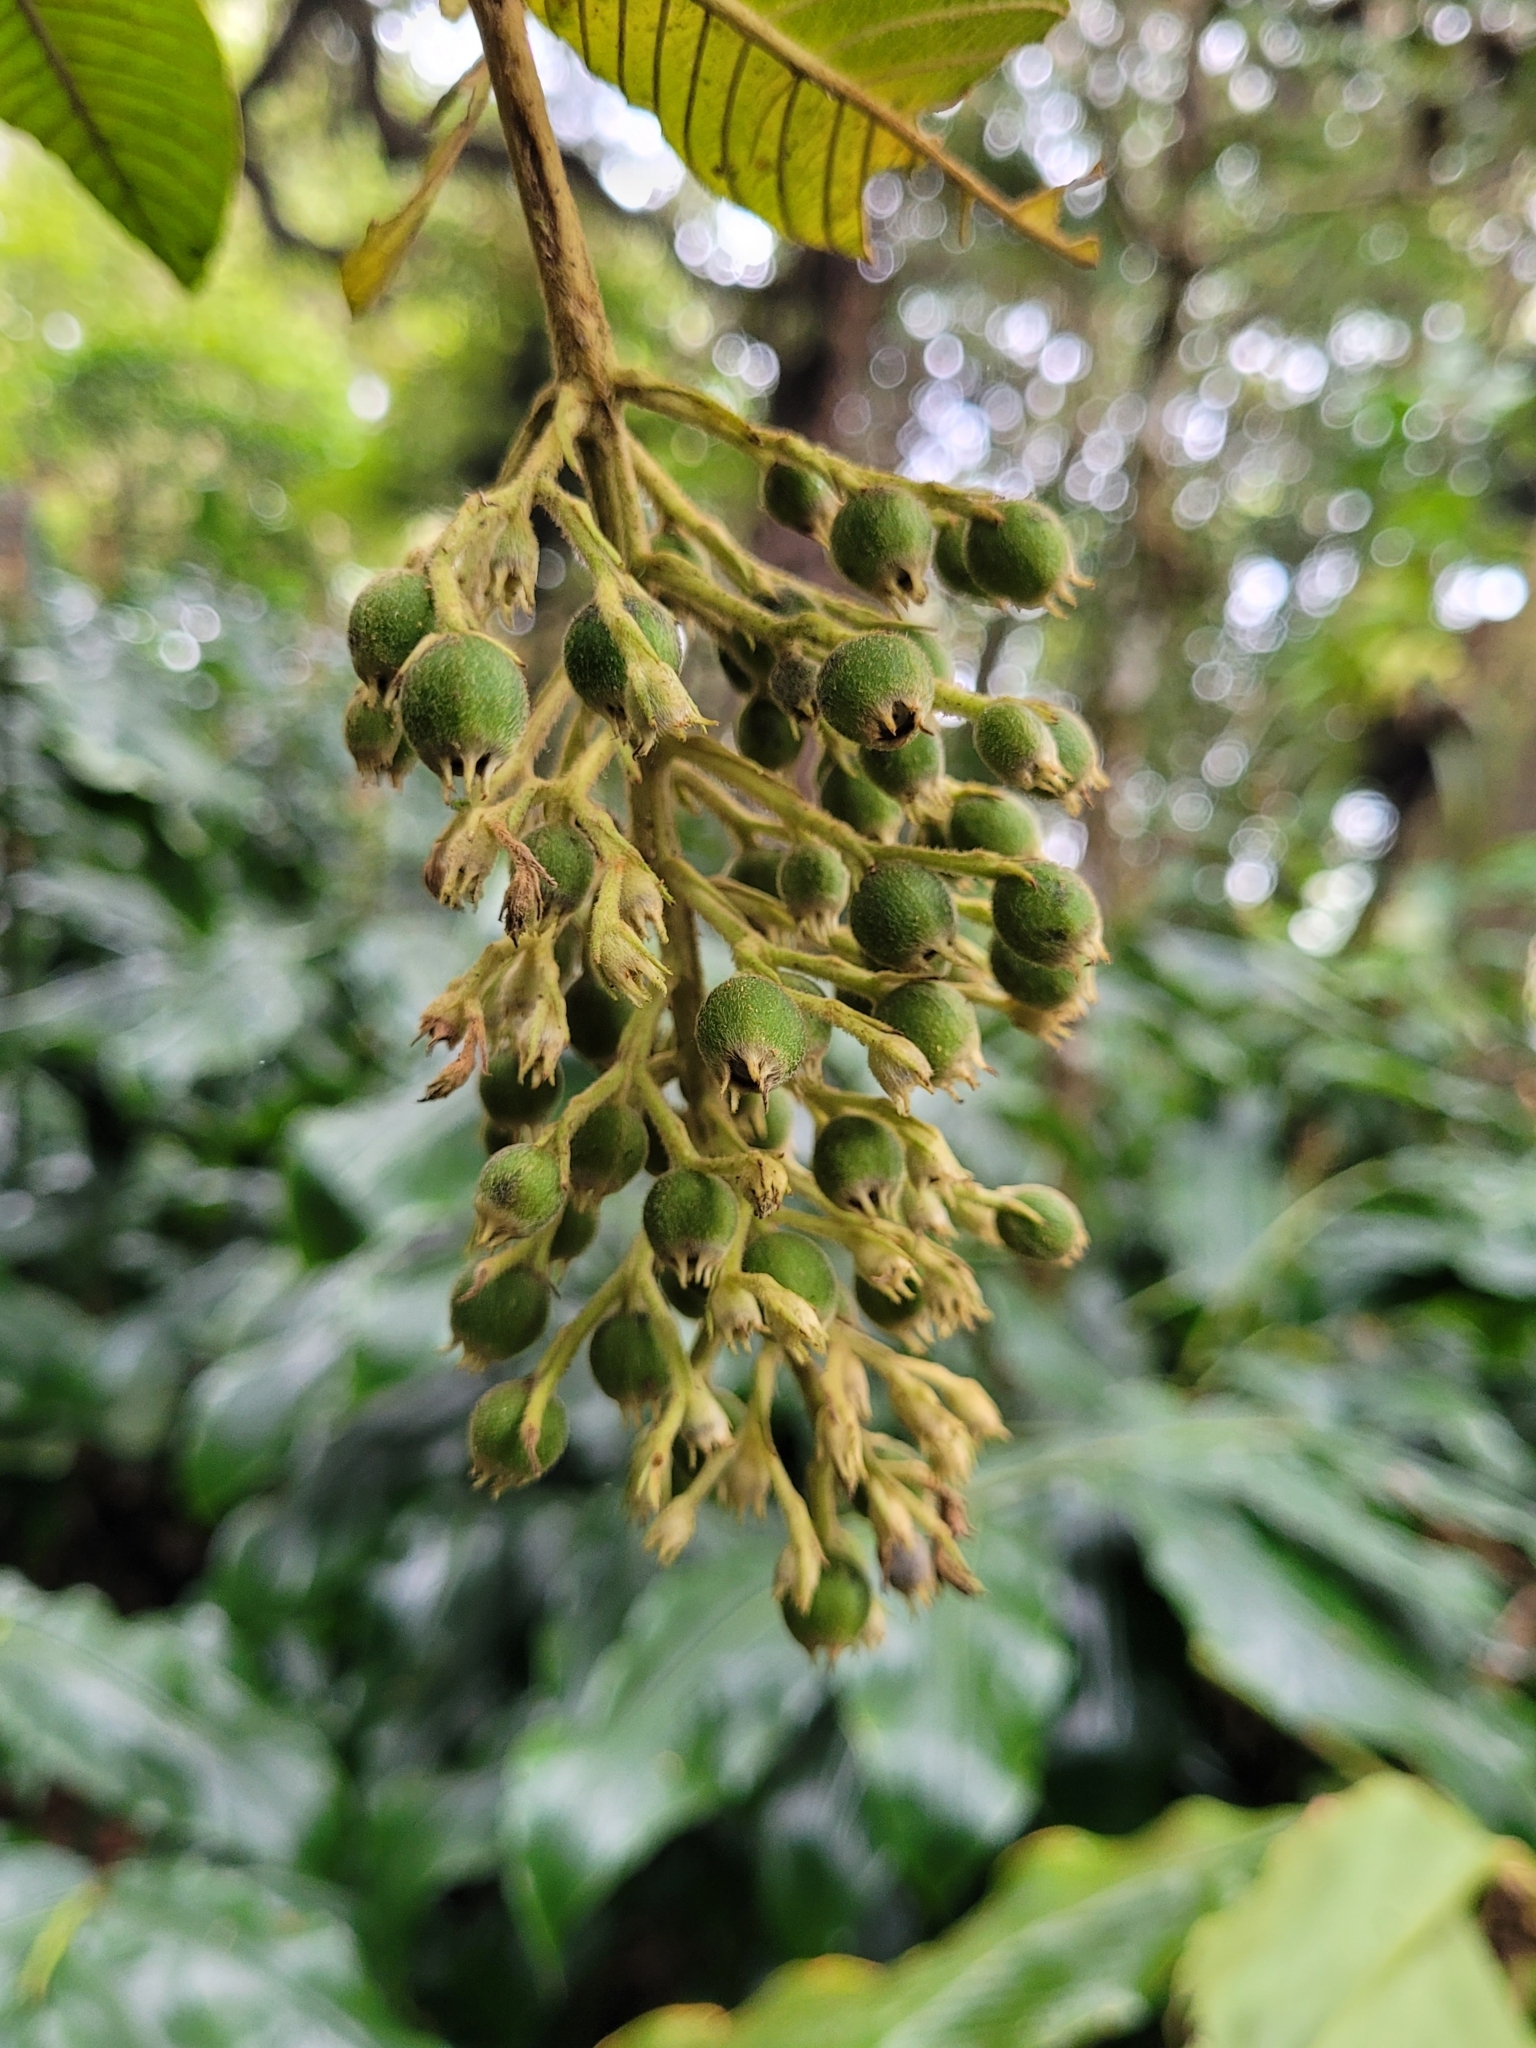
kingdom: Plantae
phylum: Tracheophyta
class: Magnoliopsida
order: Gentianales
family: Rubiaceae
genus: Bertiera
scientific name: Bertiera rufa
